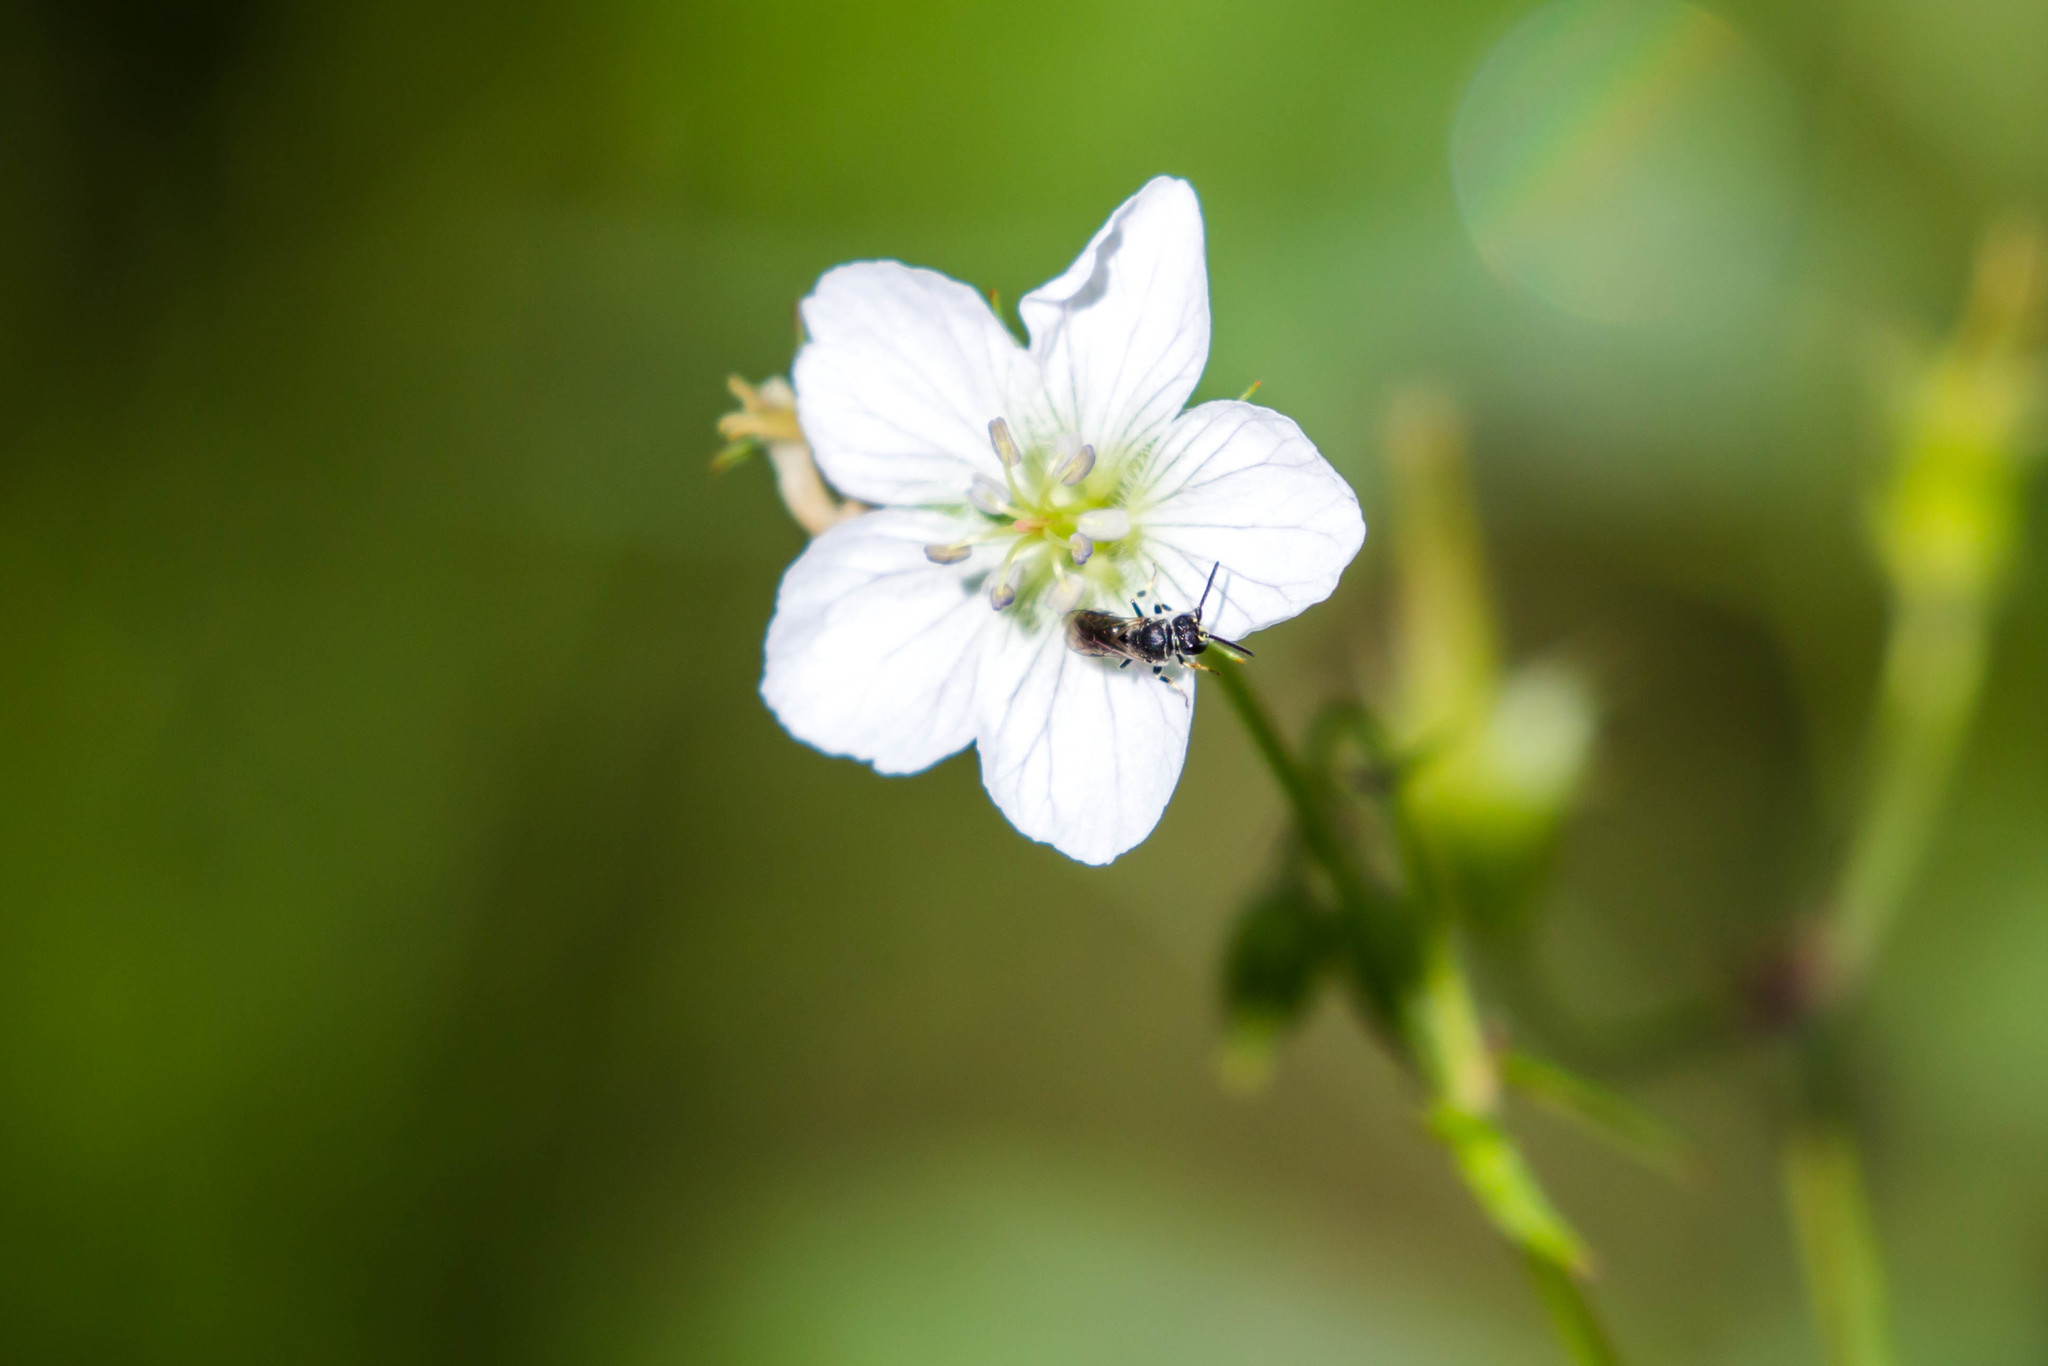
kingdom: Animalia
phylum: Arthropoda
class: Insecta
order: Hymenoptera
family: Colletidae
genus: Hylaeus
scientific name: Hylaeus
